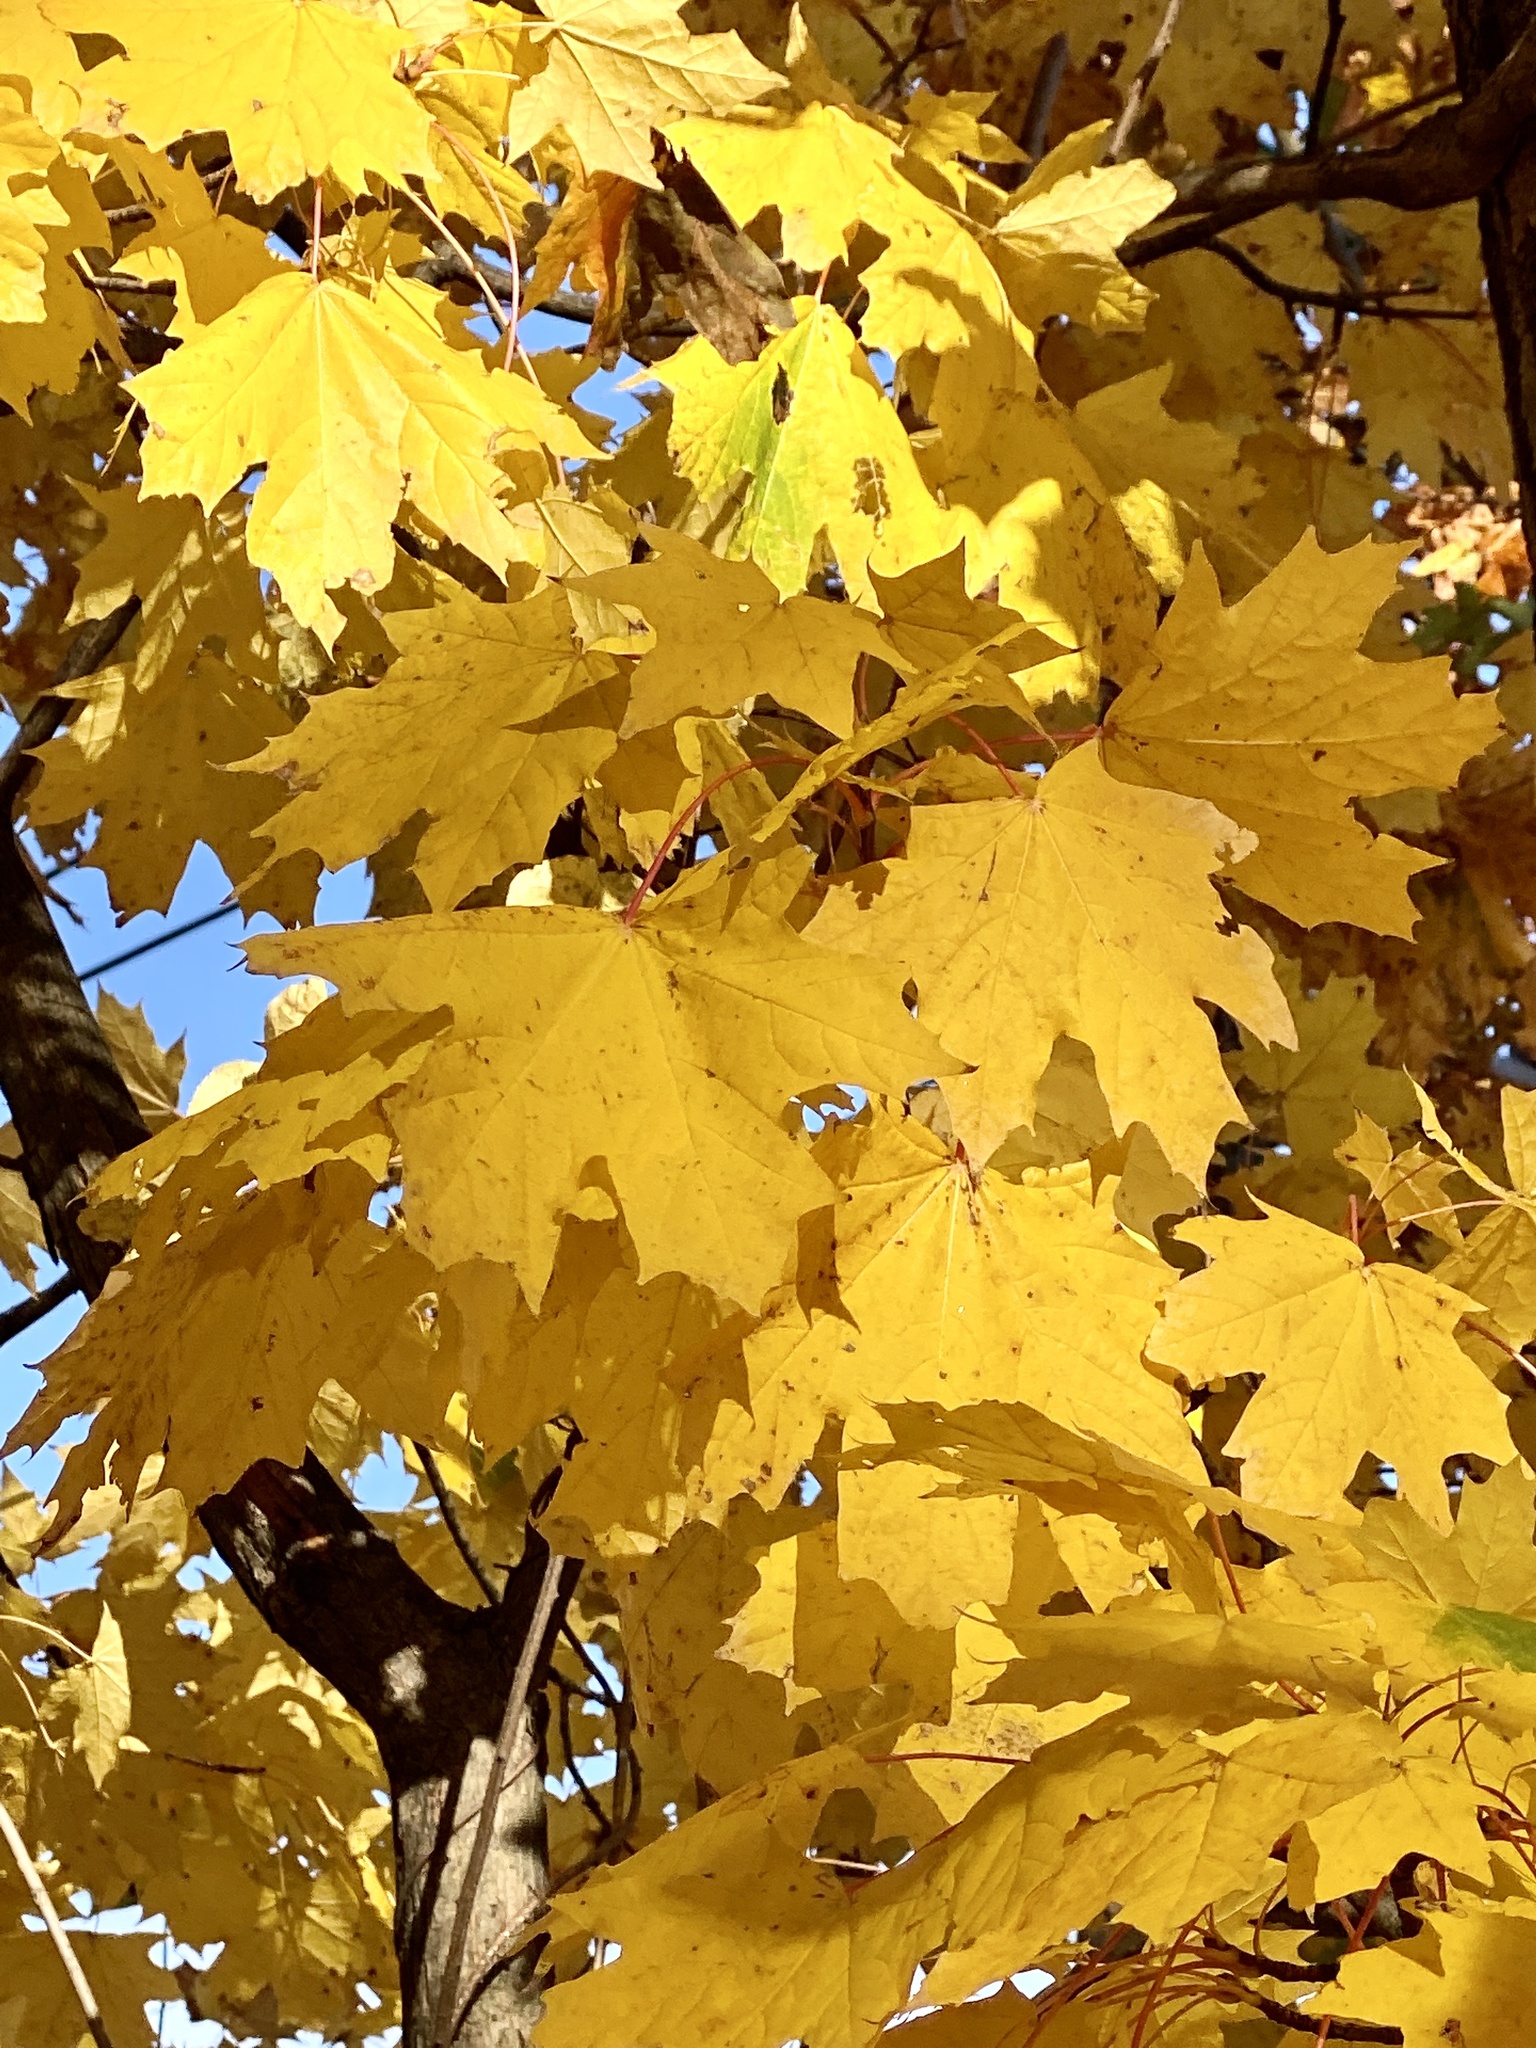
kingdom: Plantae
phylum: Tracheophyta
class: Magnoliopsida
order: Sapindales
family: Sapindaceae
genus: Acer
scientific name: Acer platanoides
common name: Norway maple
